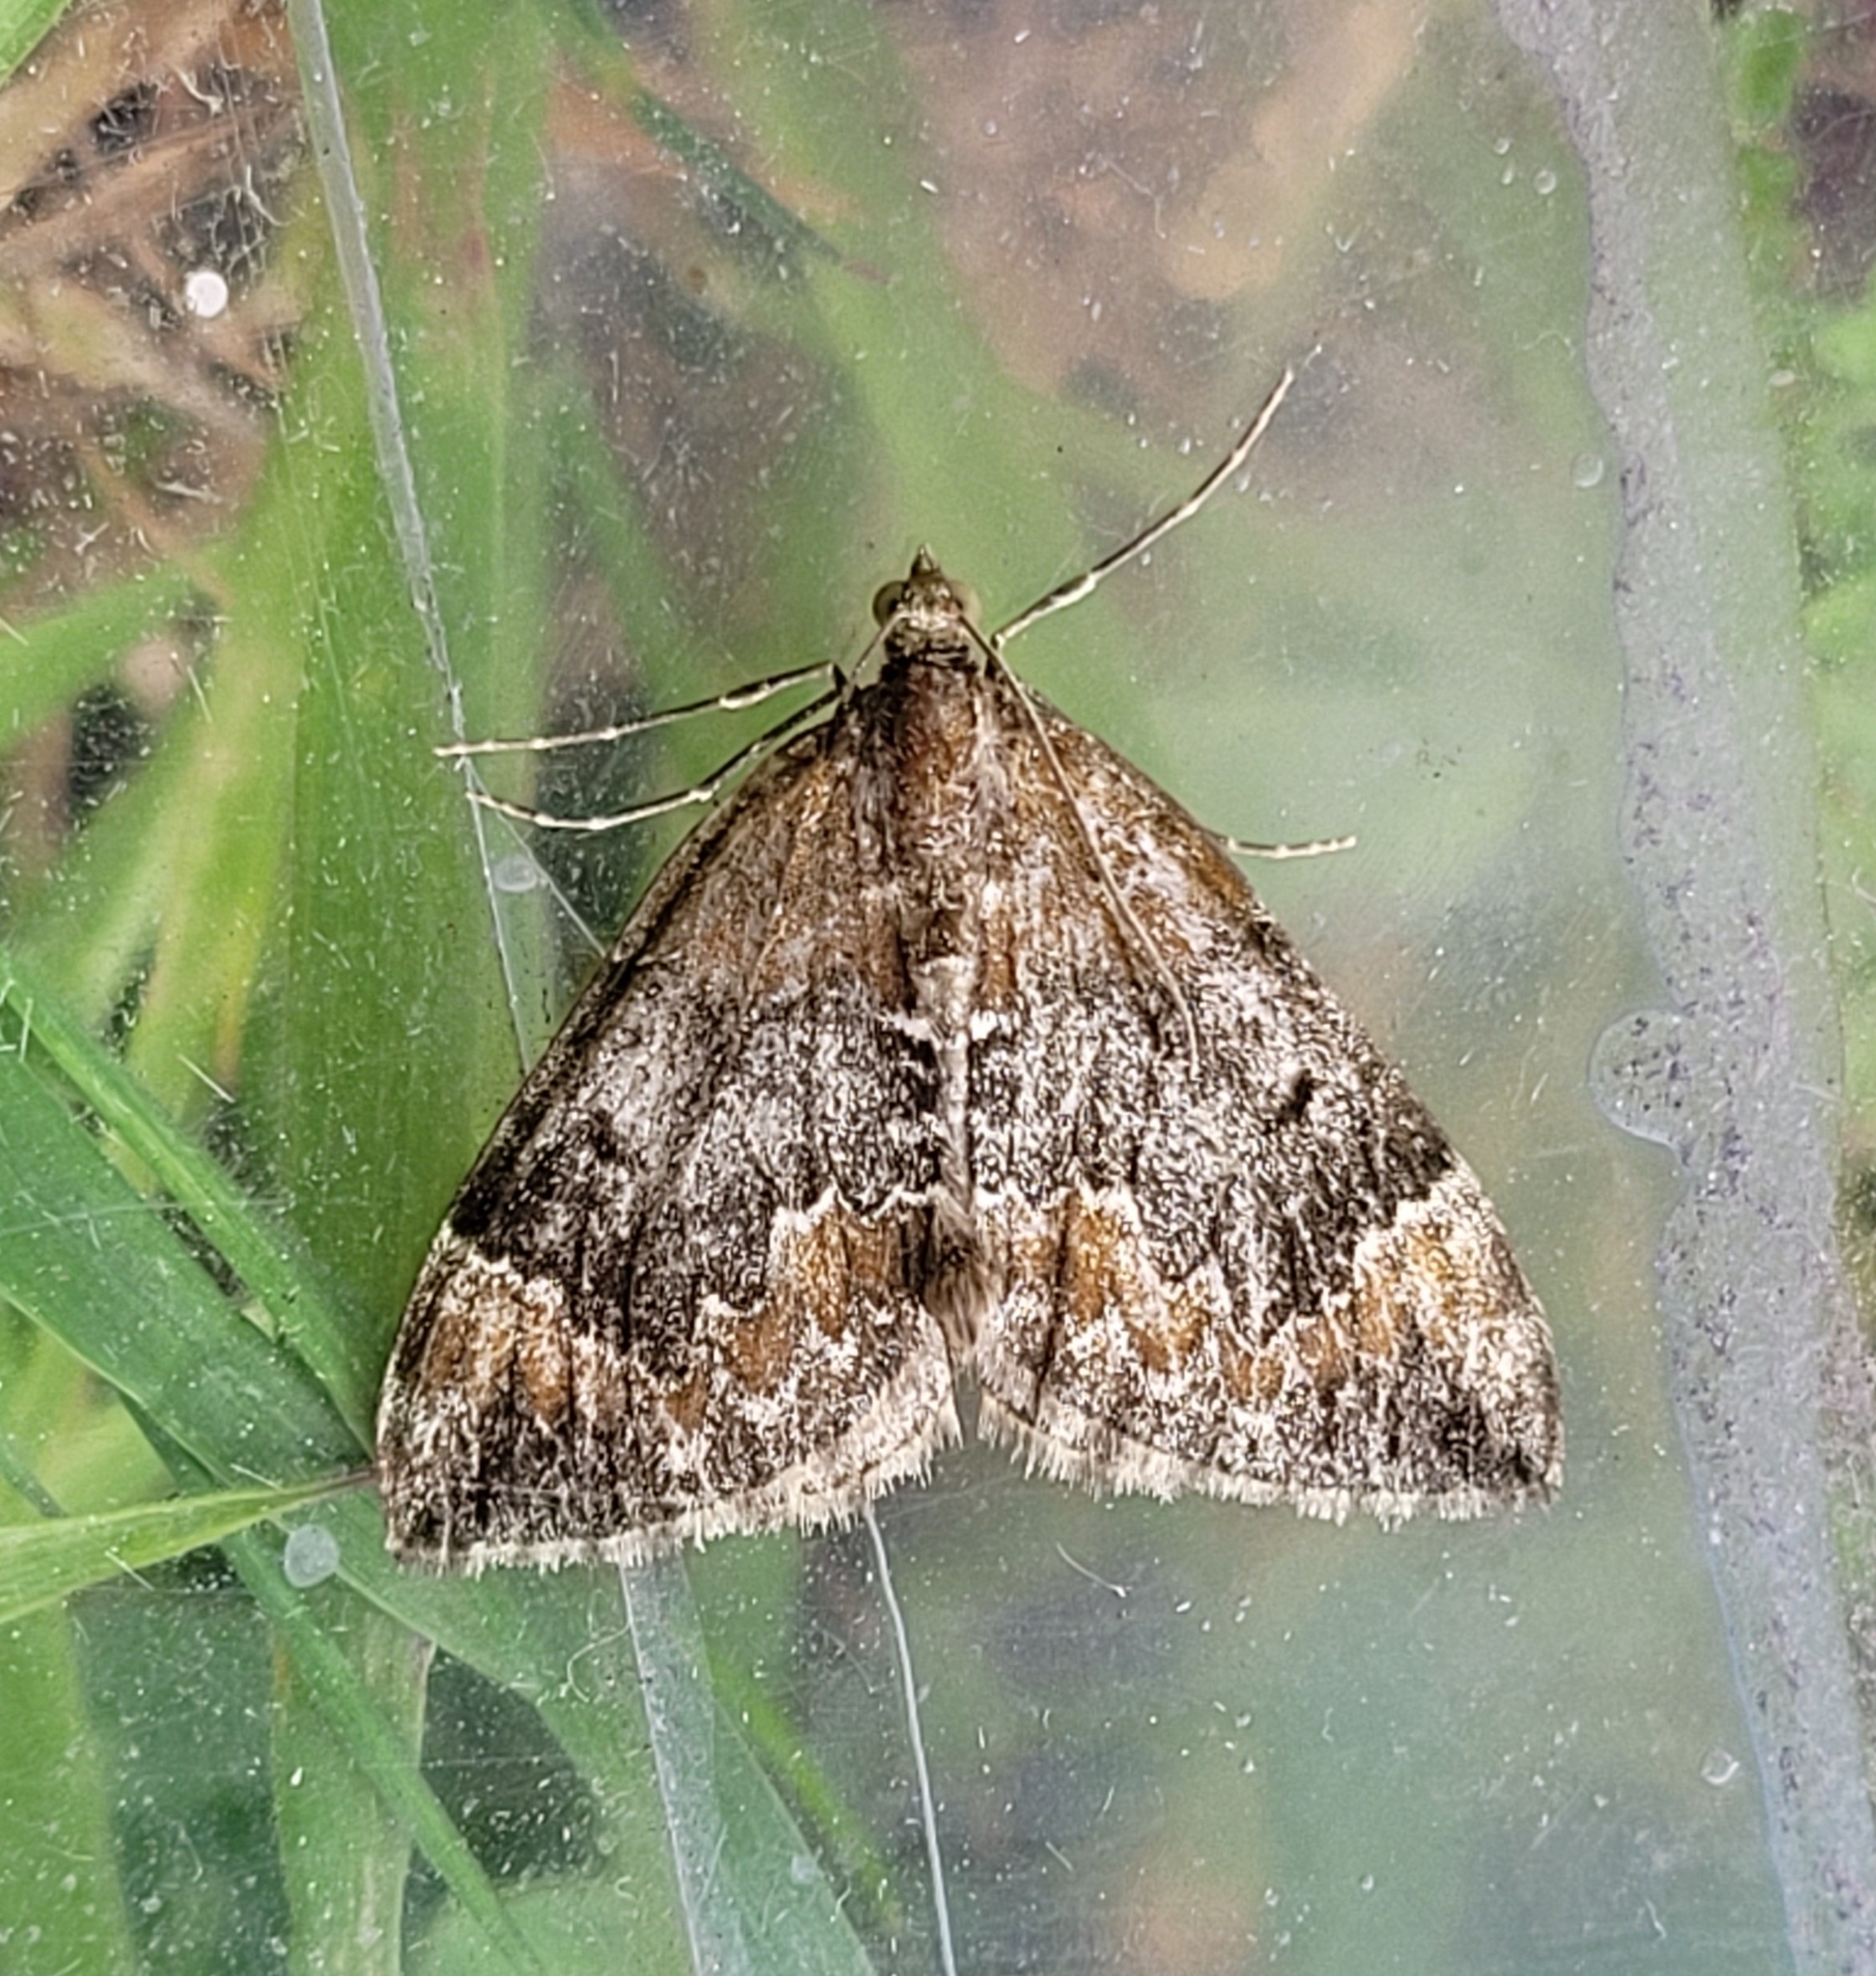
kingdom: Animalia
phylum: Arthropoda
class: Insecta
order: Lepidoptera
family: Geometridae
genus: Dysstroma
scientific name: Dysstroma truncata
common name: Common marbled carpet
